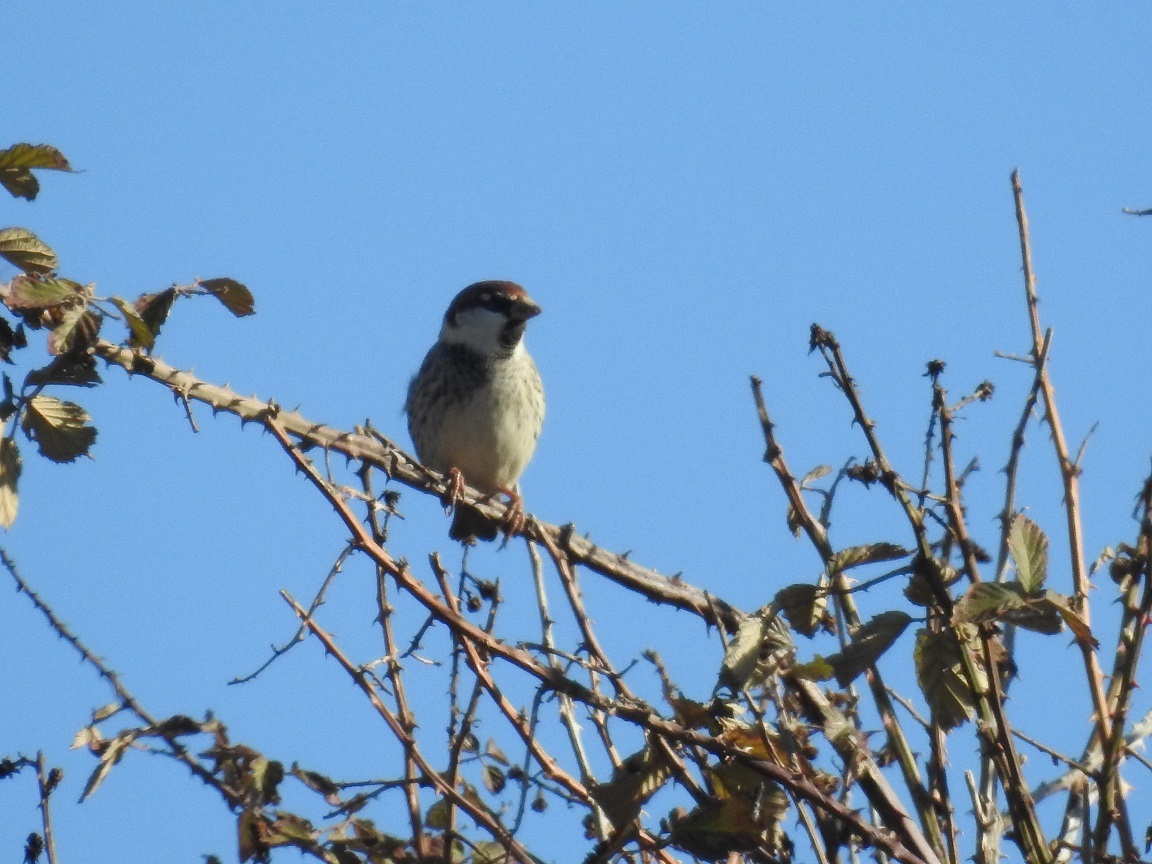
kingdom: Animalia
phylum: Chordata
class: Aves
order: Passeriformes
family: Passeridae
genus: Passer
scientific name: Passer hispaniolensis
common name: Spanish sparrow
